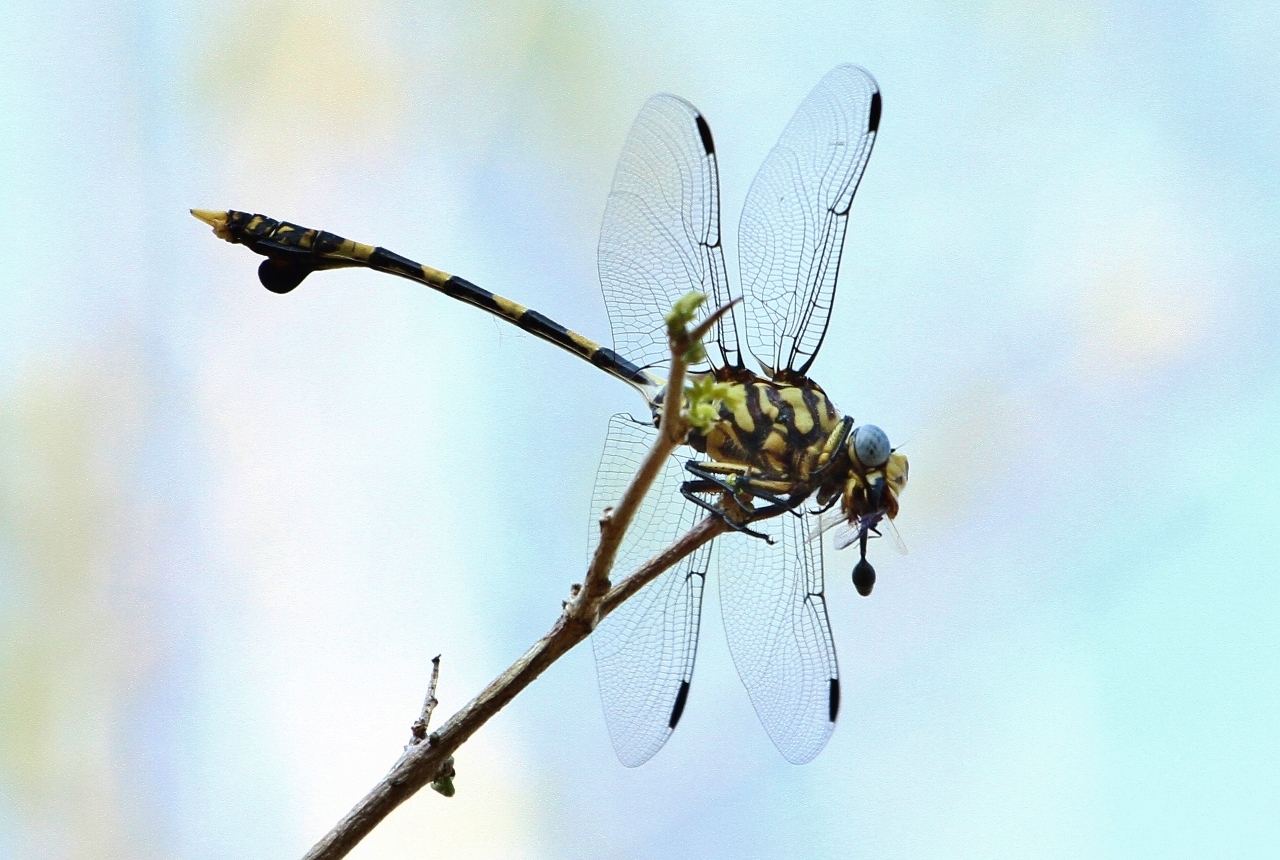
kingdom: Animalia
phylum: Arthropoda
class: Insecta
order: Odonata
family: Gomphidae
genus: Ictinogomphus
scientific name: Ictinogomphus ferox
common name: Common tiger
